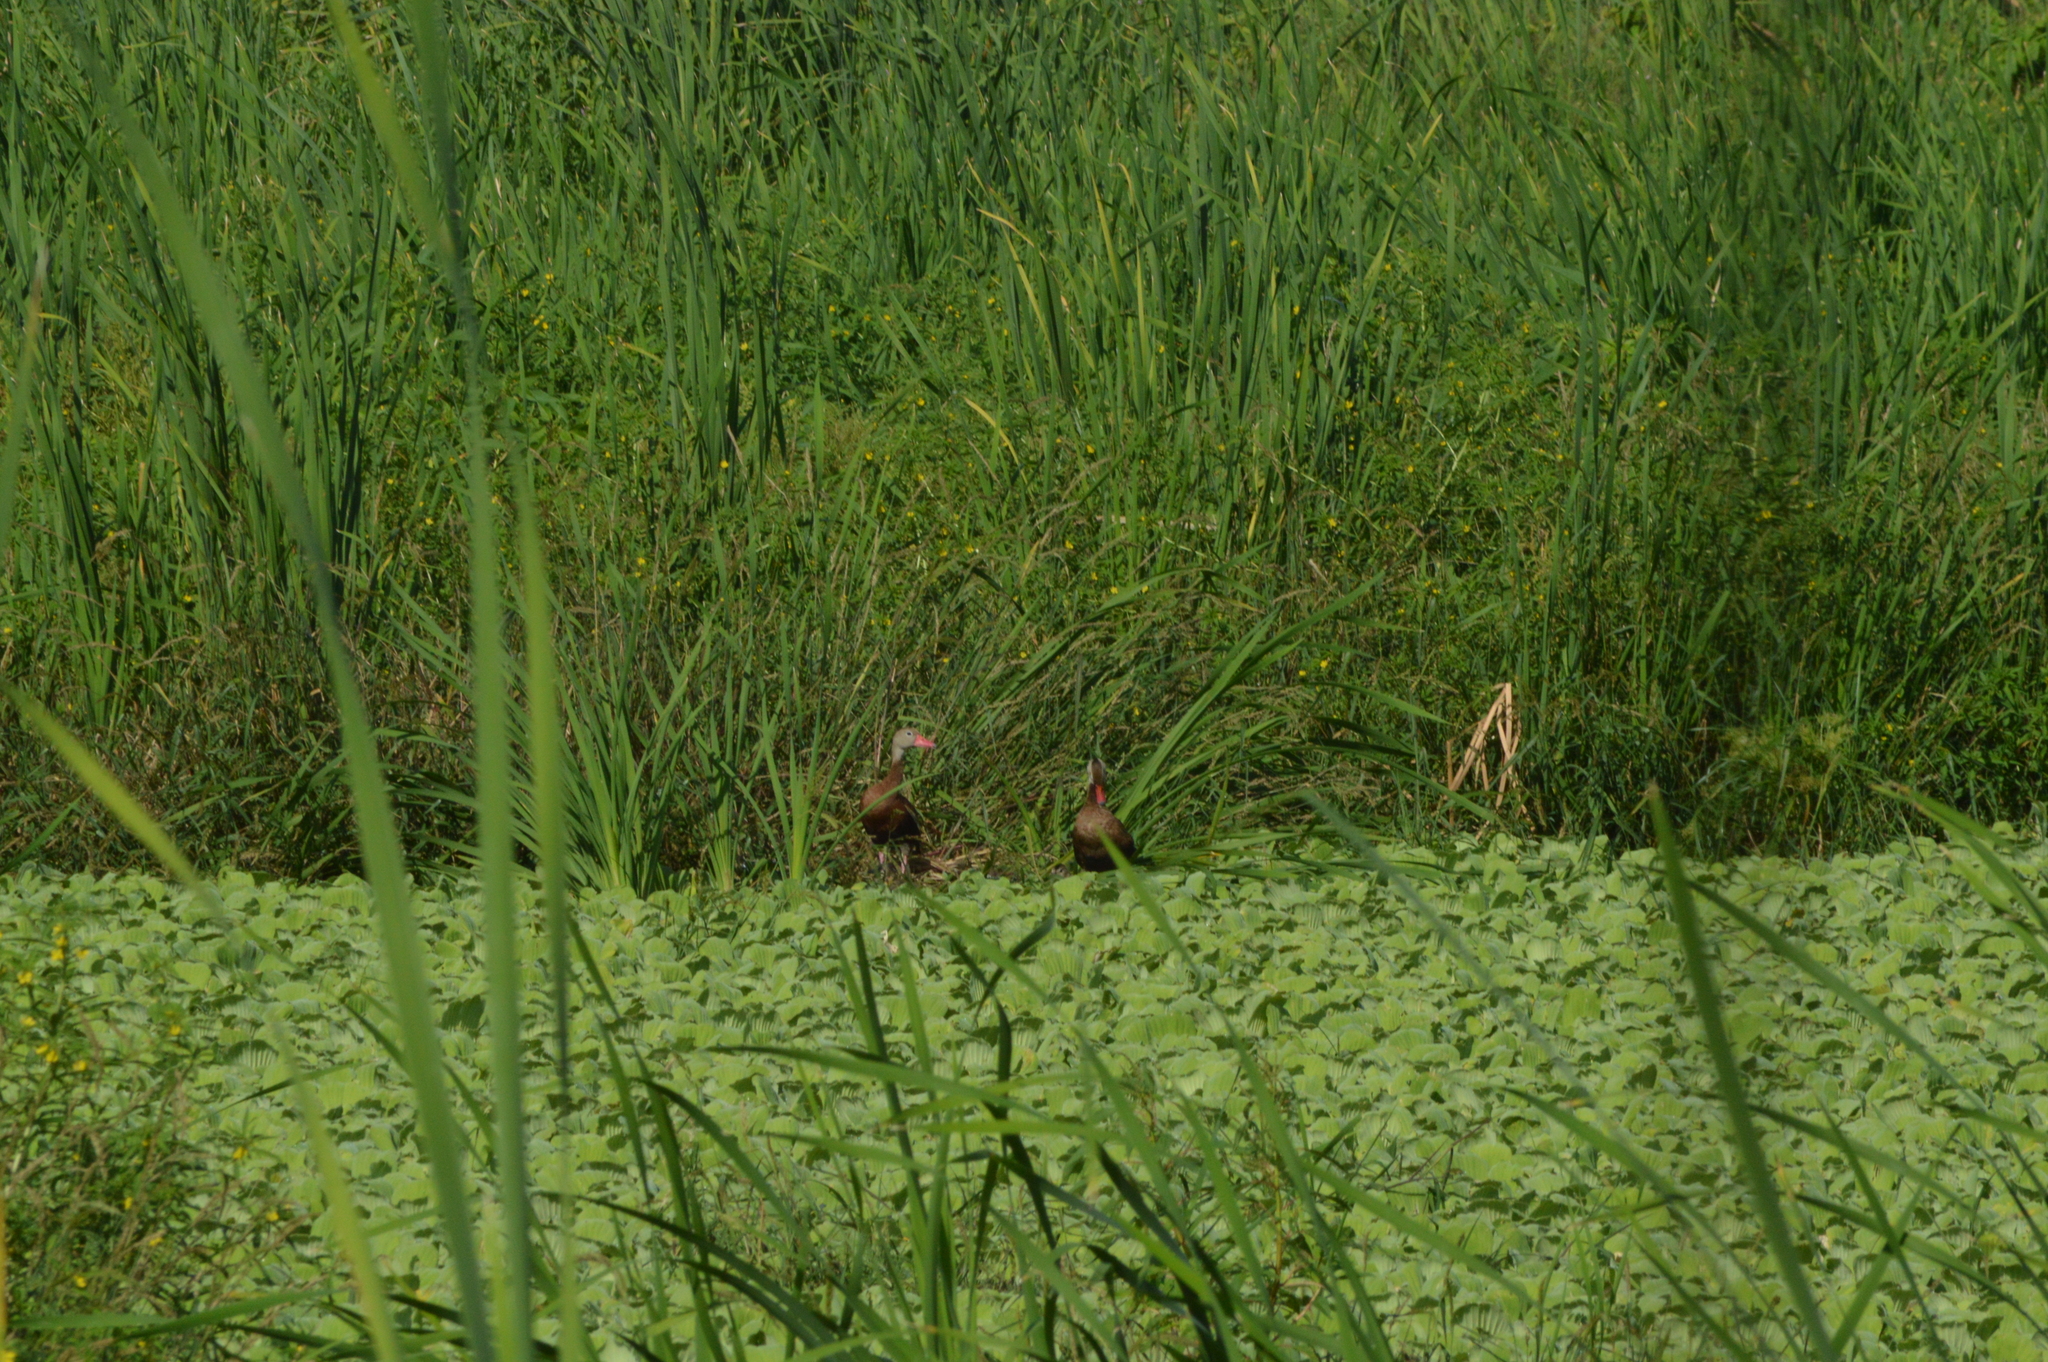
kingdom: Animalia
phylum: Chordata
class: Aves
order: Anseriformes
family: Anatidae
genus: Dendrocygna
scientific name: Dendrocygna autumnalis
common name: Black-bellied whistling duck
